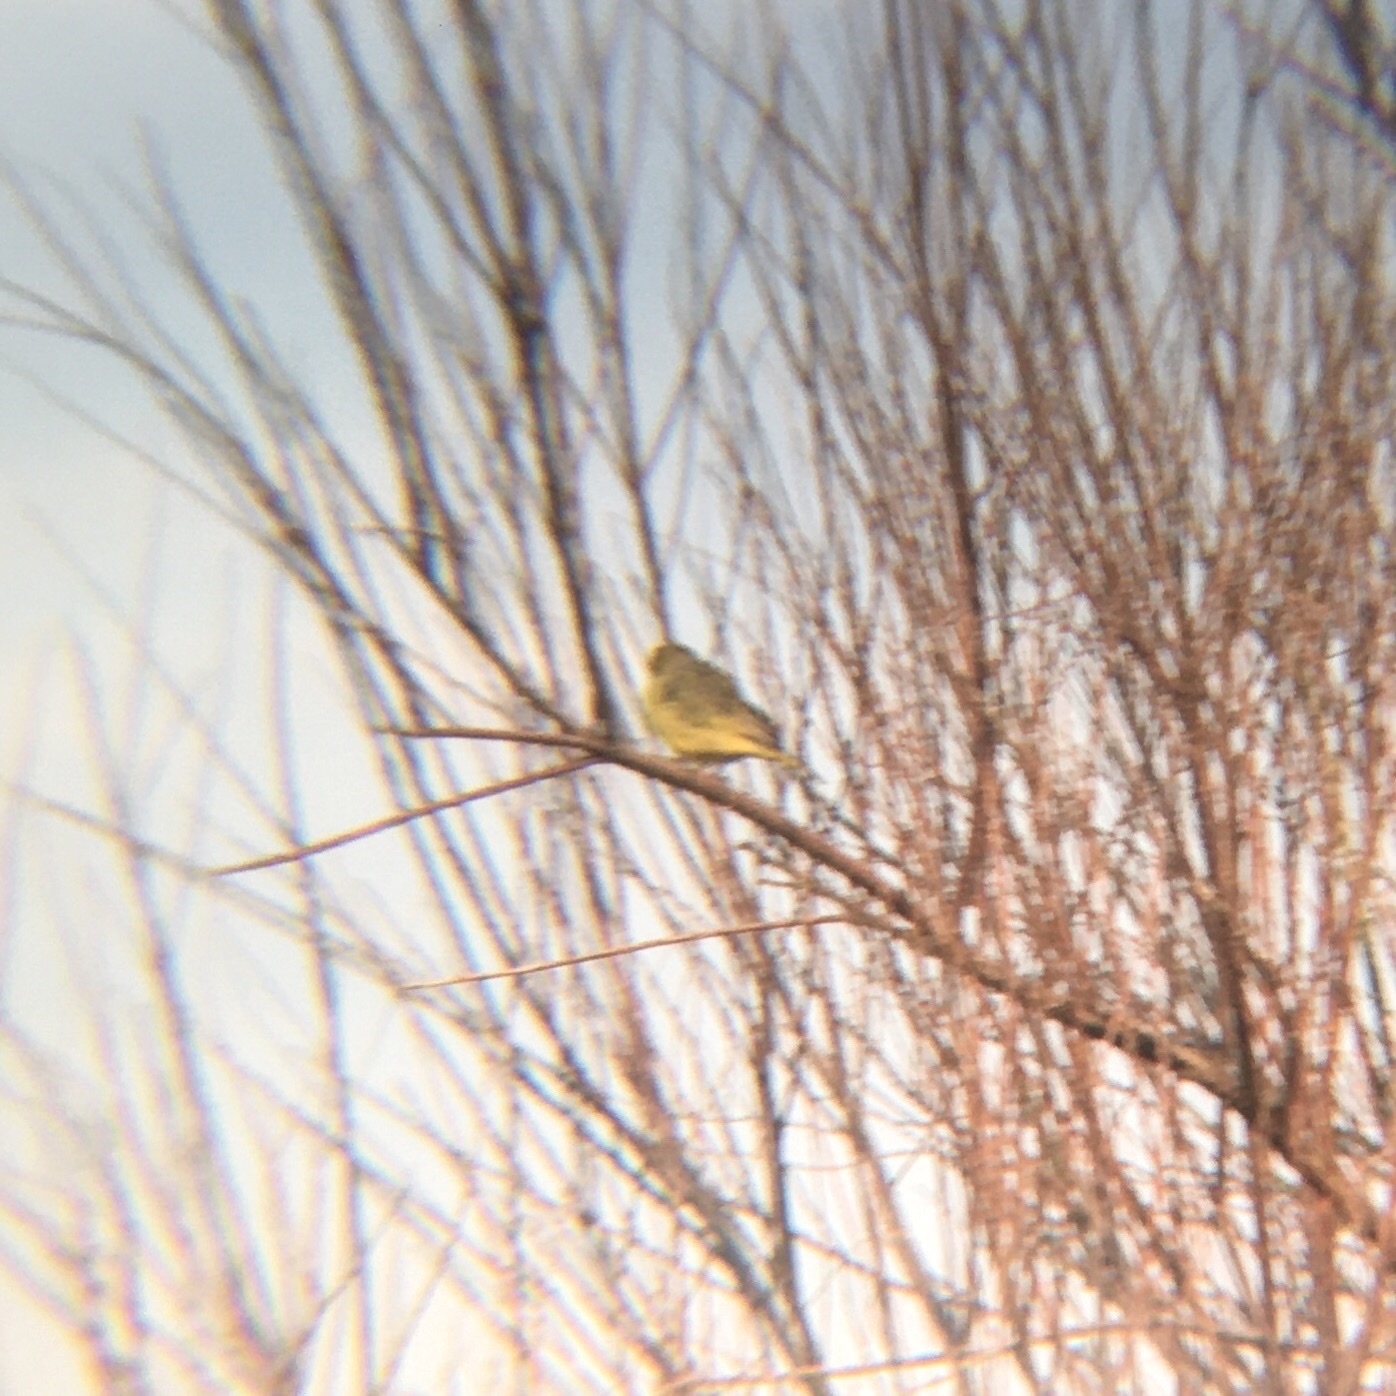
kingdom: Animalia
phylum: Chordata
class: Aves
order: Passeriformes
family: Thraupidae
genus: Sicalis
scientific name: Sicalis flaveola
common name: Saffron finch
